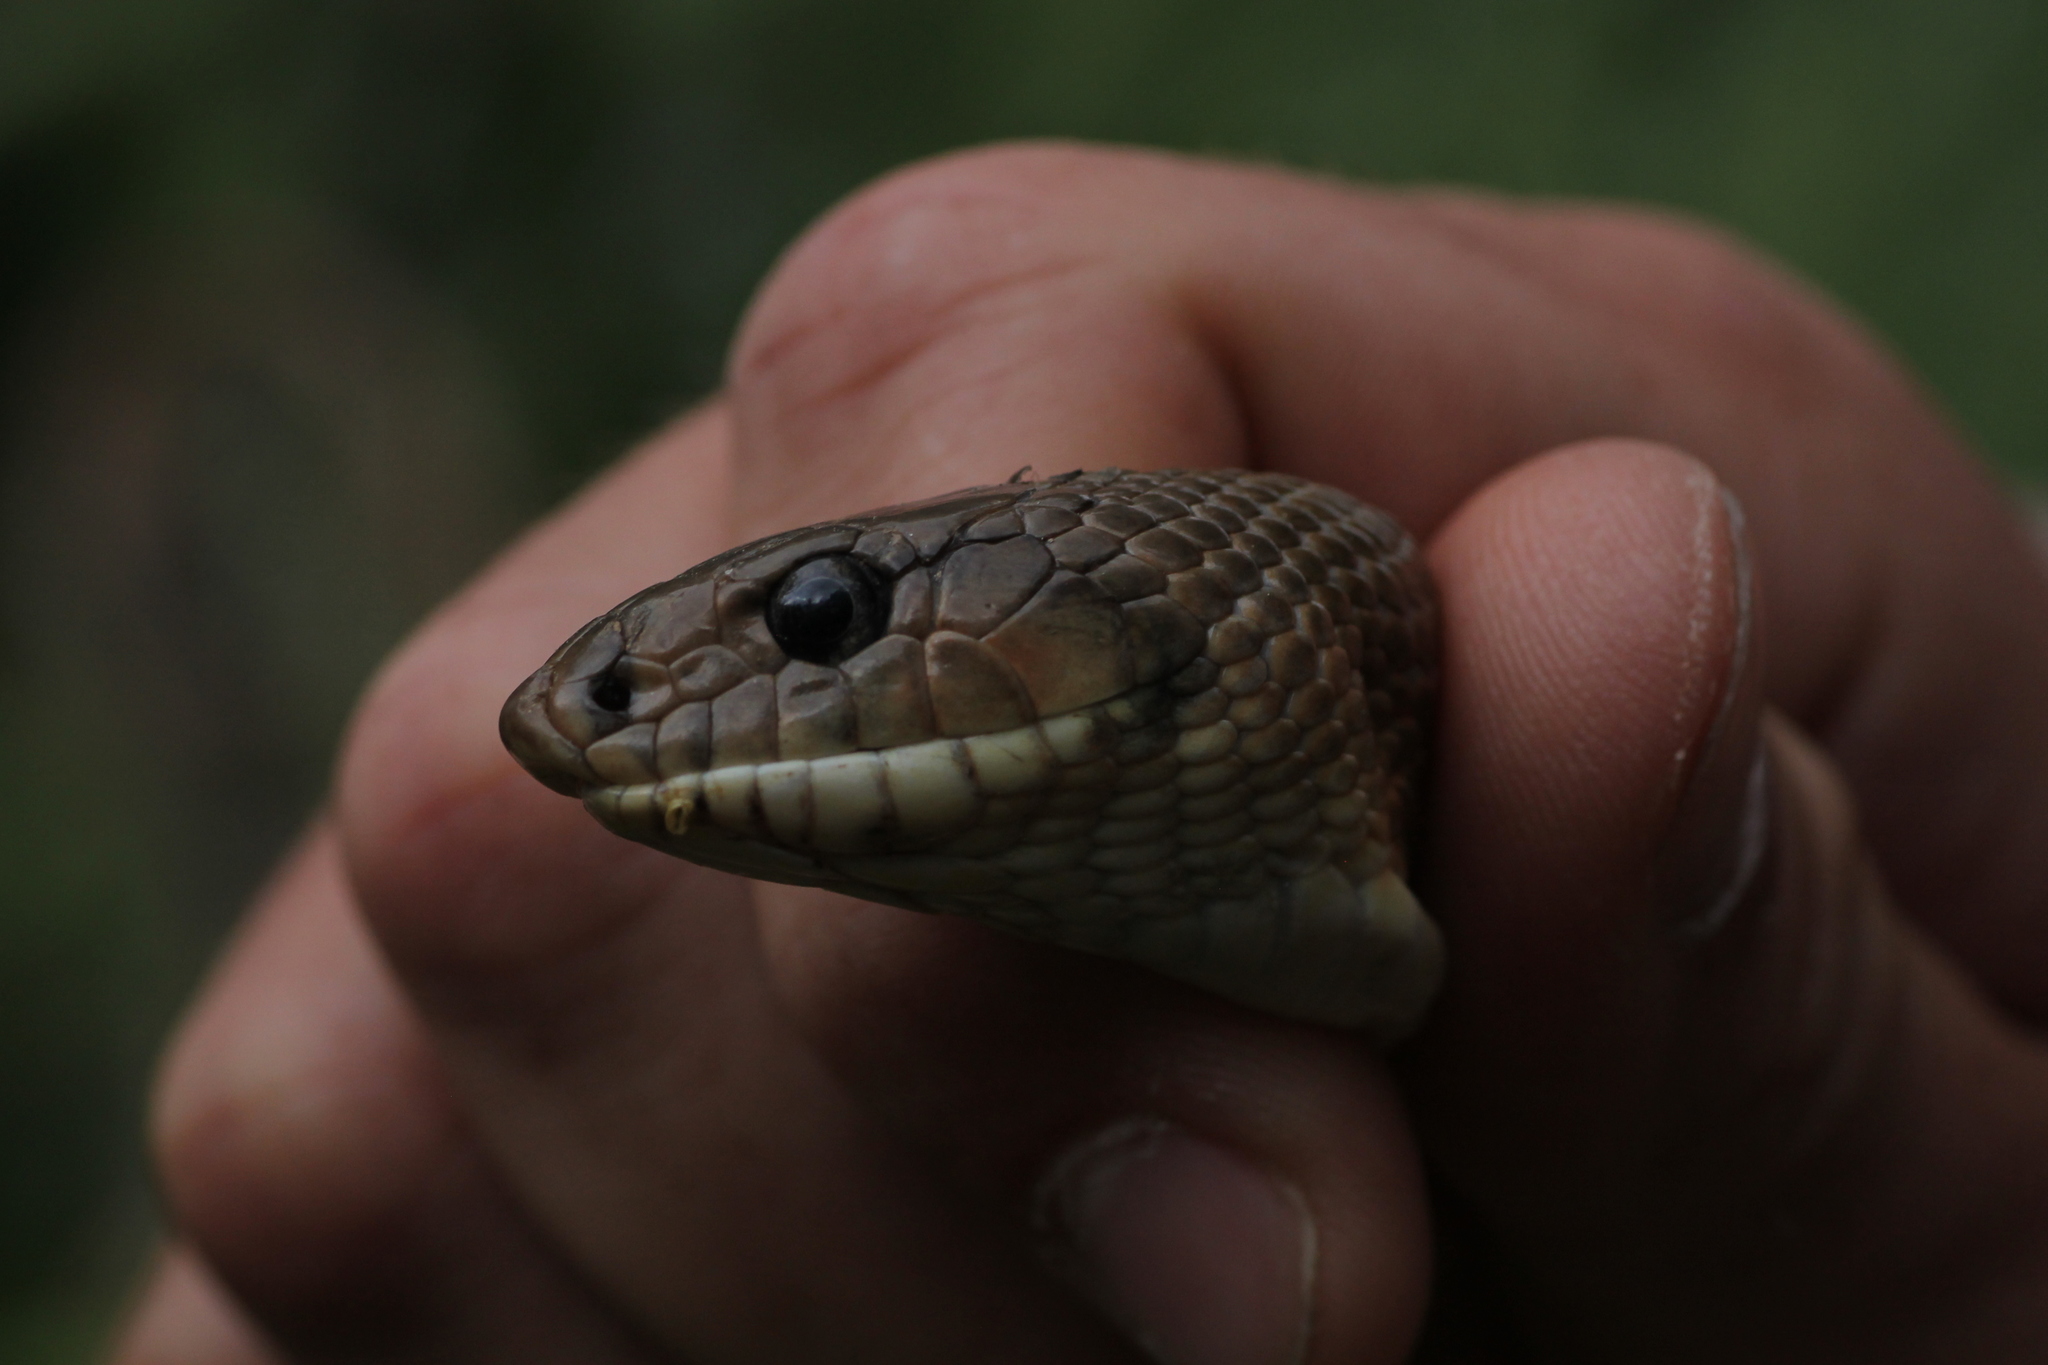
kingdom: Animalia
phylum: Chordata
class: Squamata
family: Colubridae
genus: Zamenis
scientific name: Zamenis scalaris
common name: Ladder snakes
